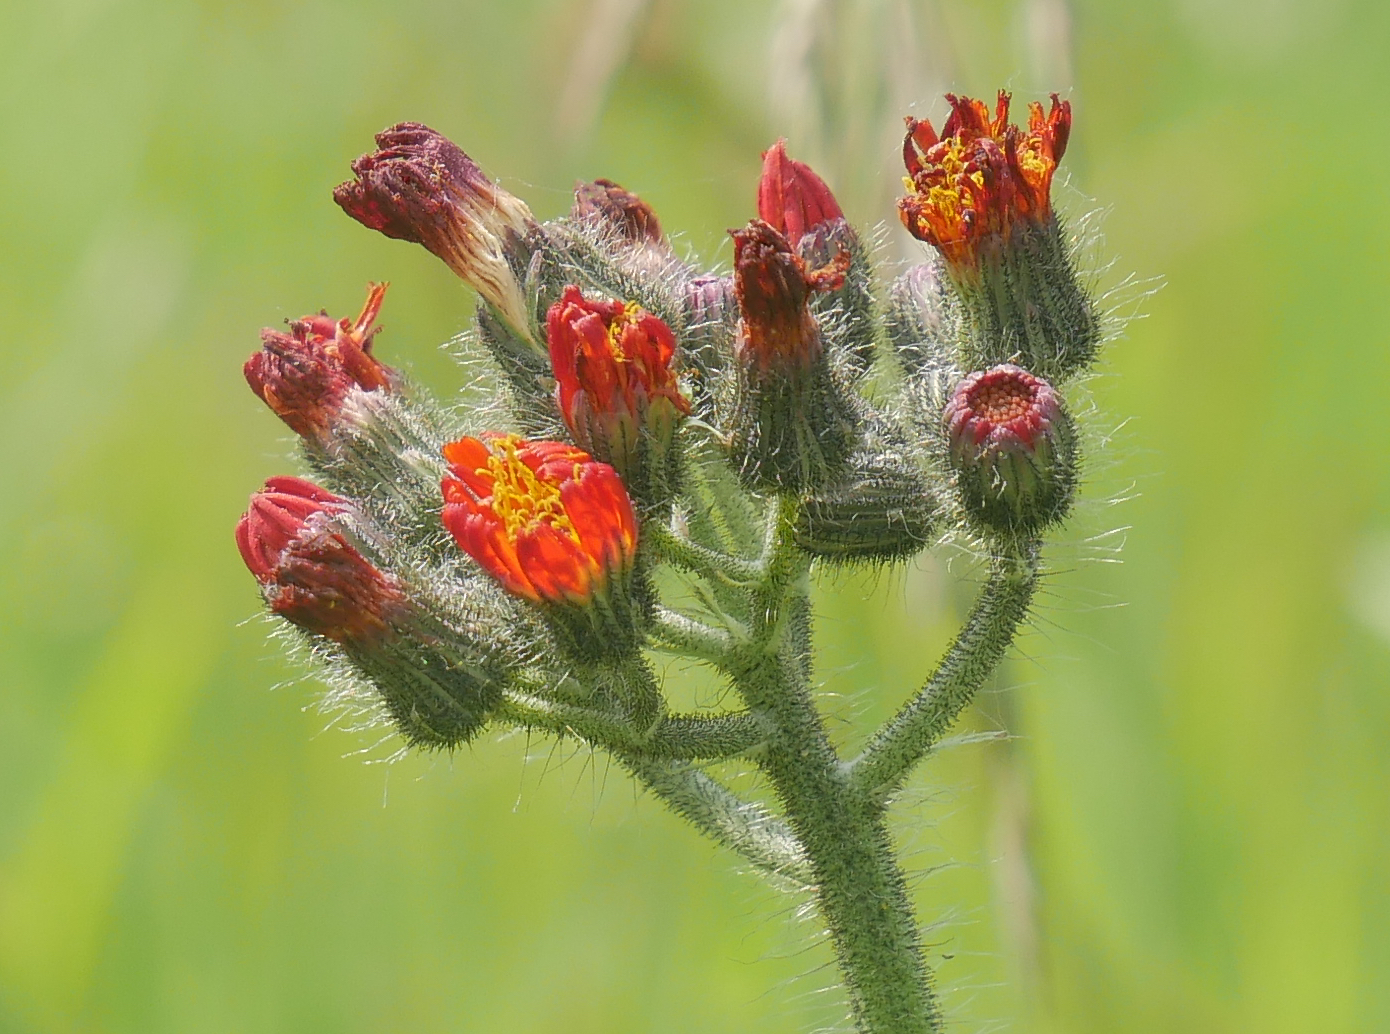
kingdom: Plantae
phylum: Tracheophyta
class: Magnoliopsida
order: Asterales
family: Asteraceae
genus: Pilosella
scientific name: Pilosella aurantiaca
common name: Fox-and-cubs
